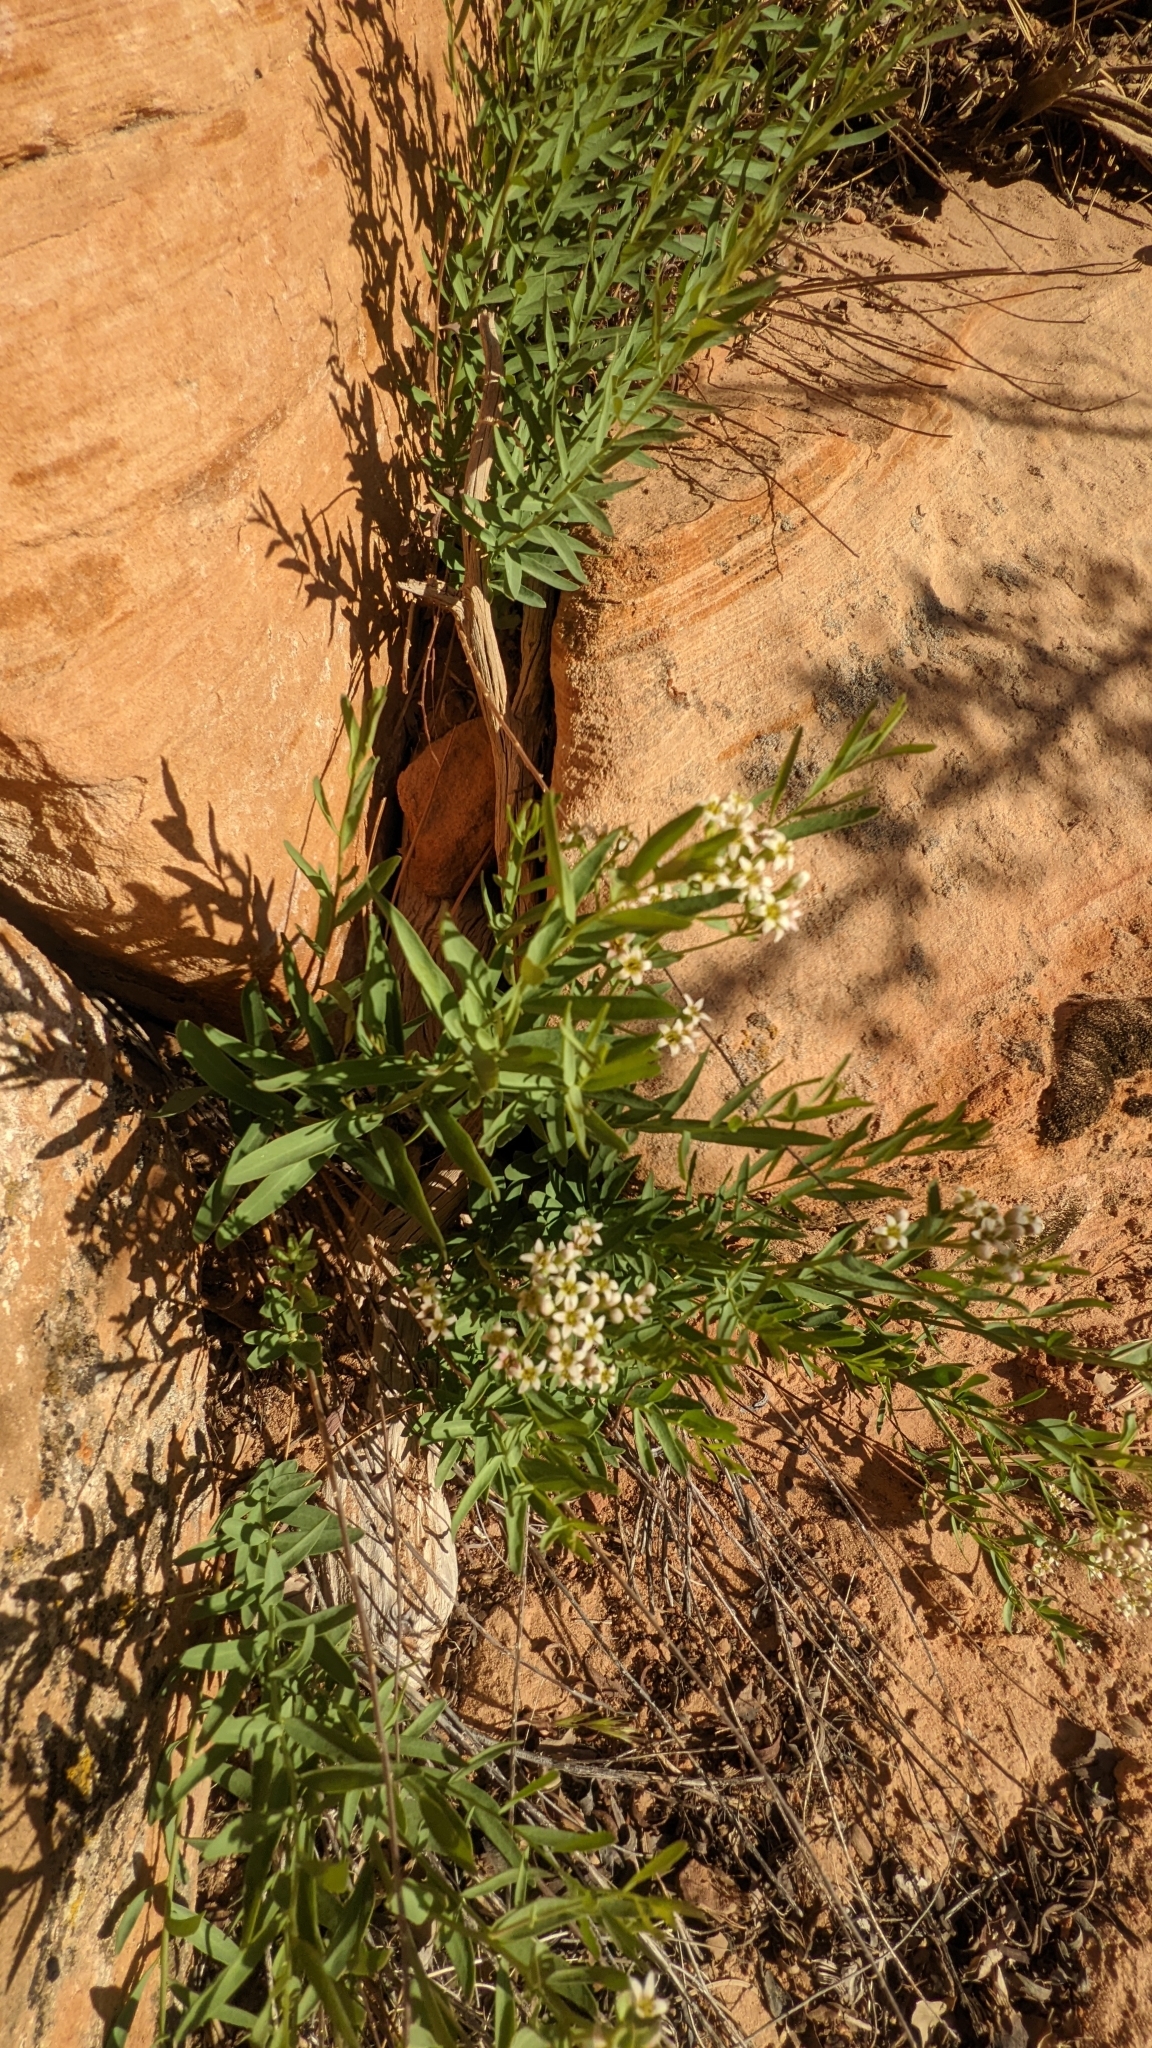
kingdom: Plantae
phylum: Tracheophyta
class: Magnoliopsida
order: Santalales
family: Comandraceae
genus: Comandra
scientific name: Comandra umbellata
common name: Bastard toadflax
